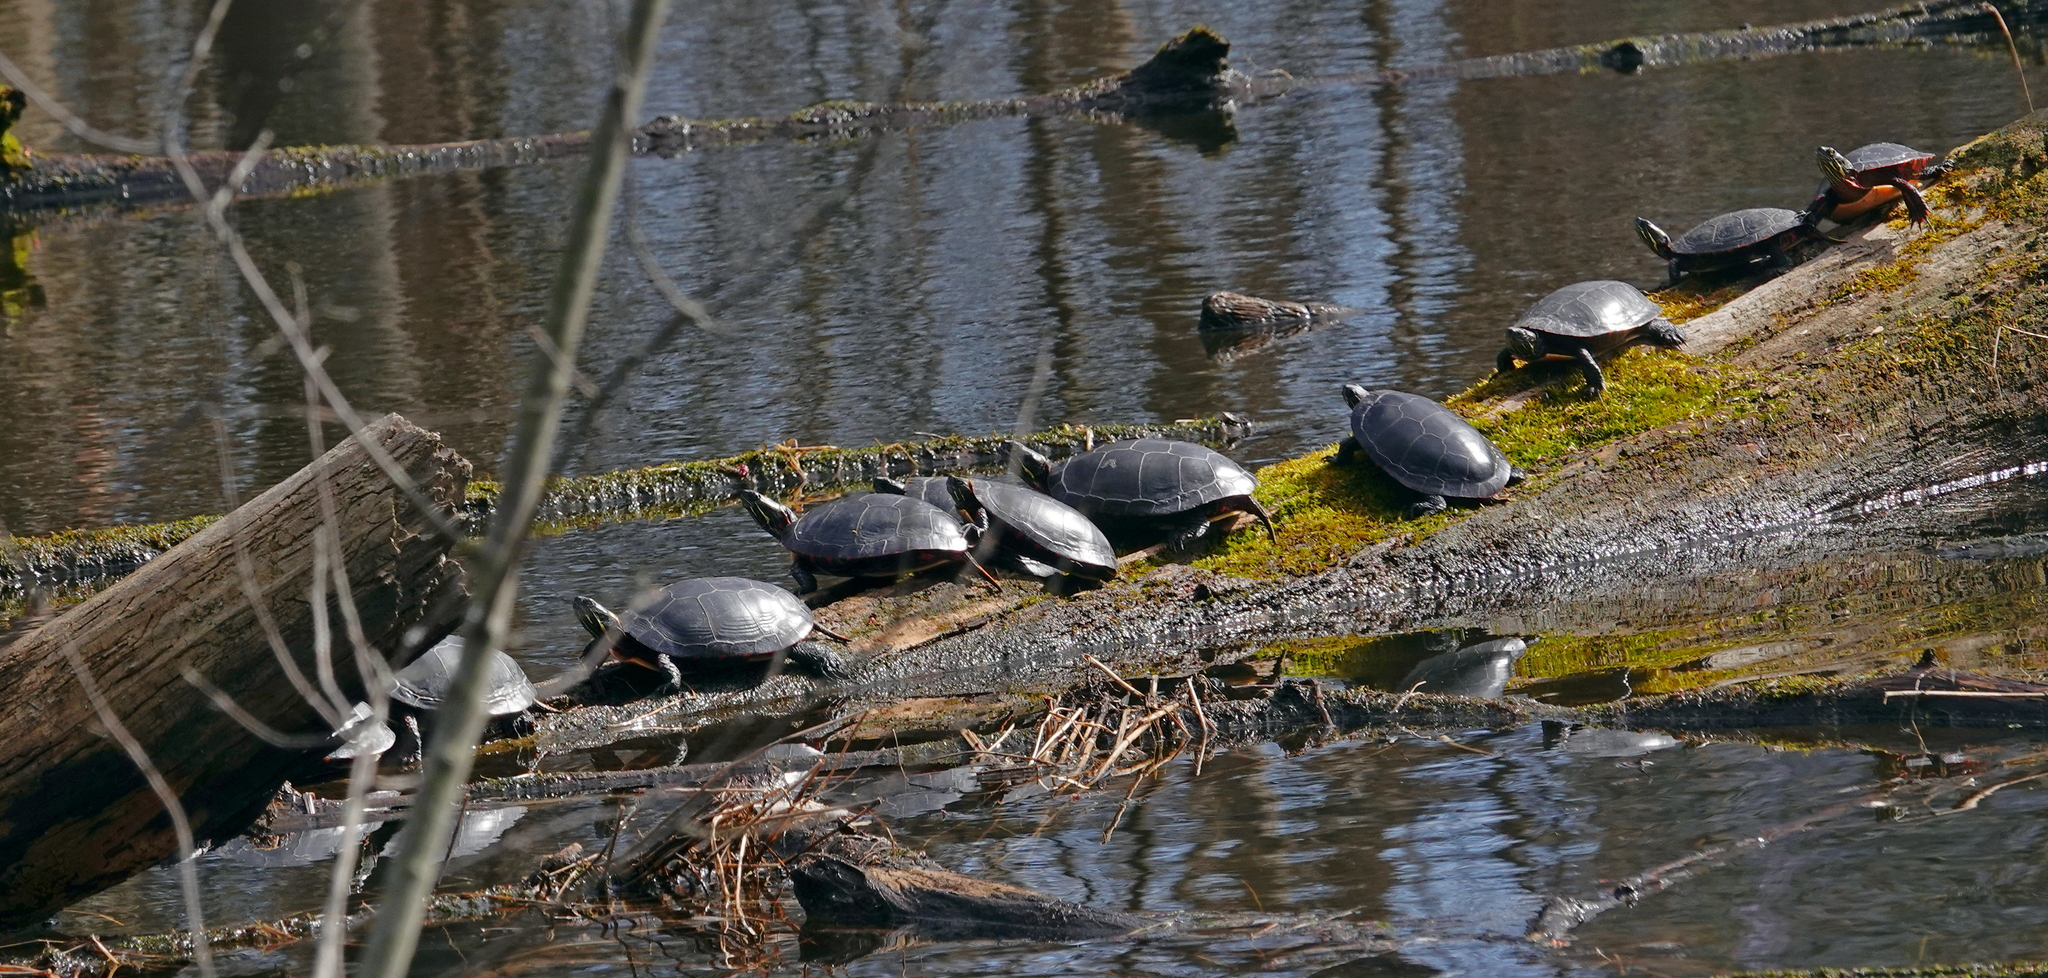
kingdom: Animalia
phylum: Chordata
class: Testudines
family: Emydidae
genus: Chrysemys
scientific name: Chrysemys picta
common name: Painted turtle
